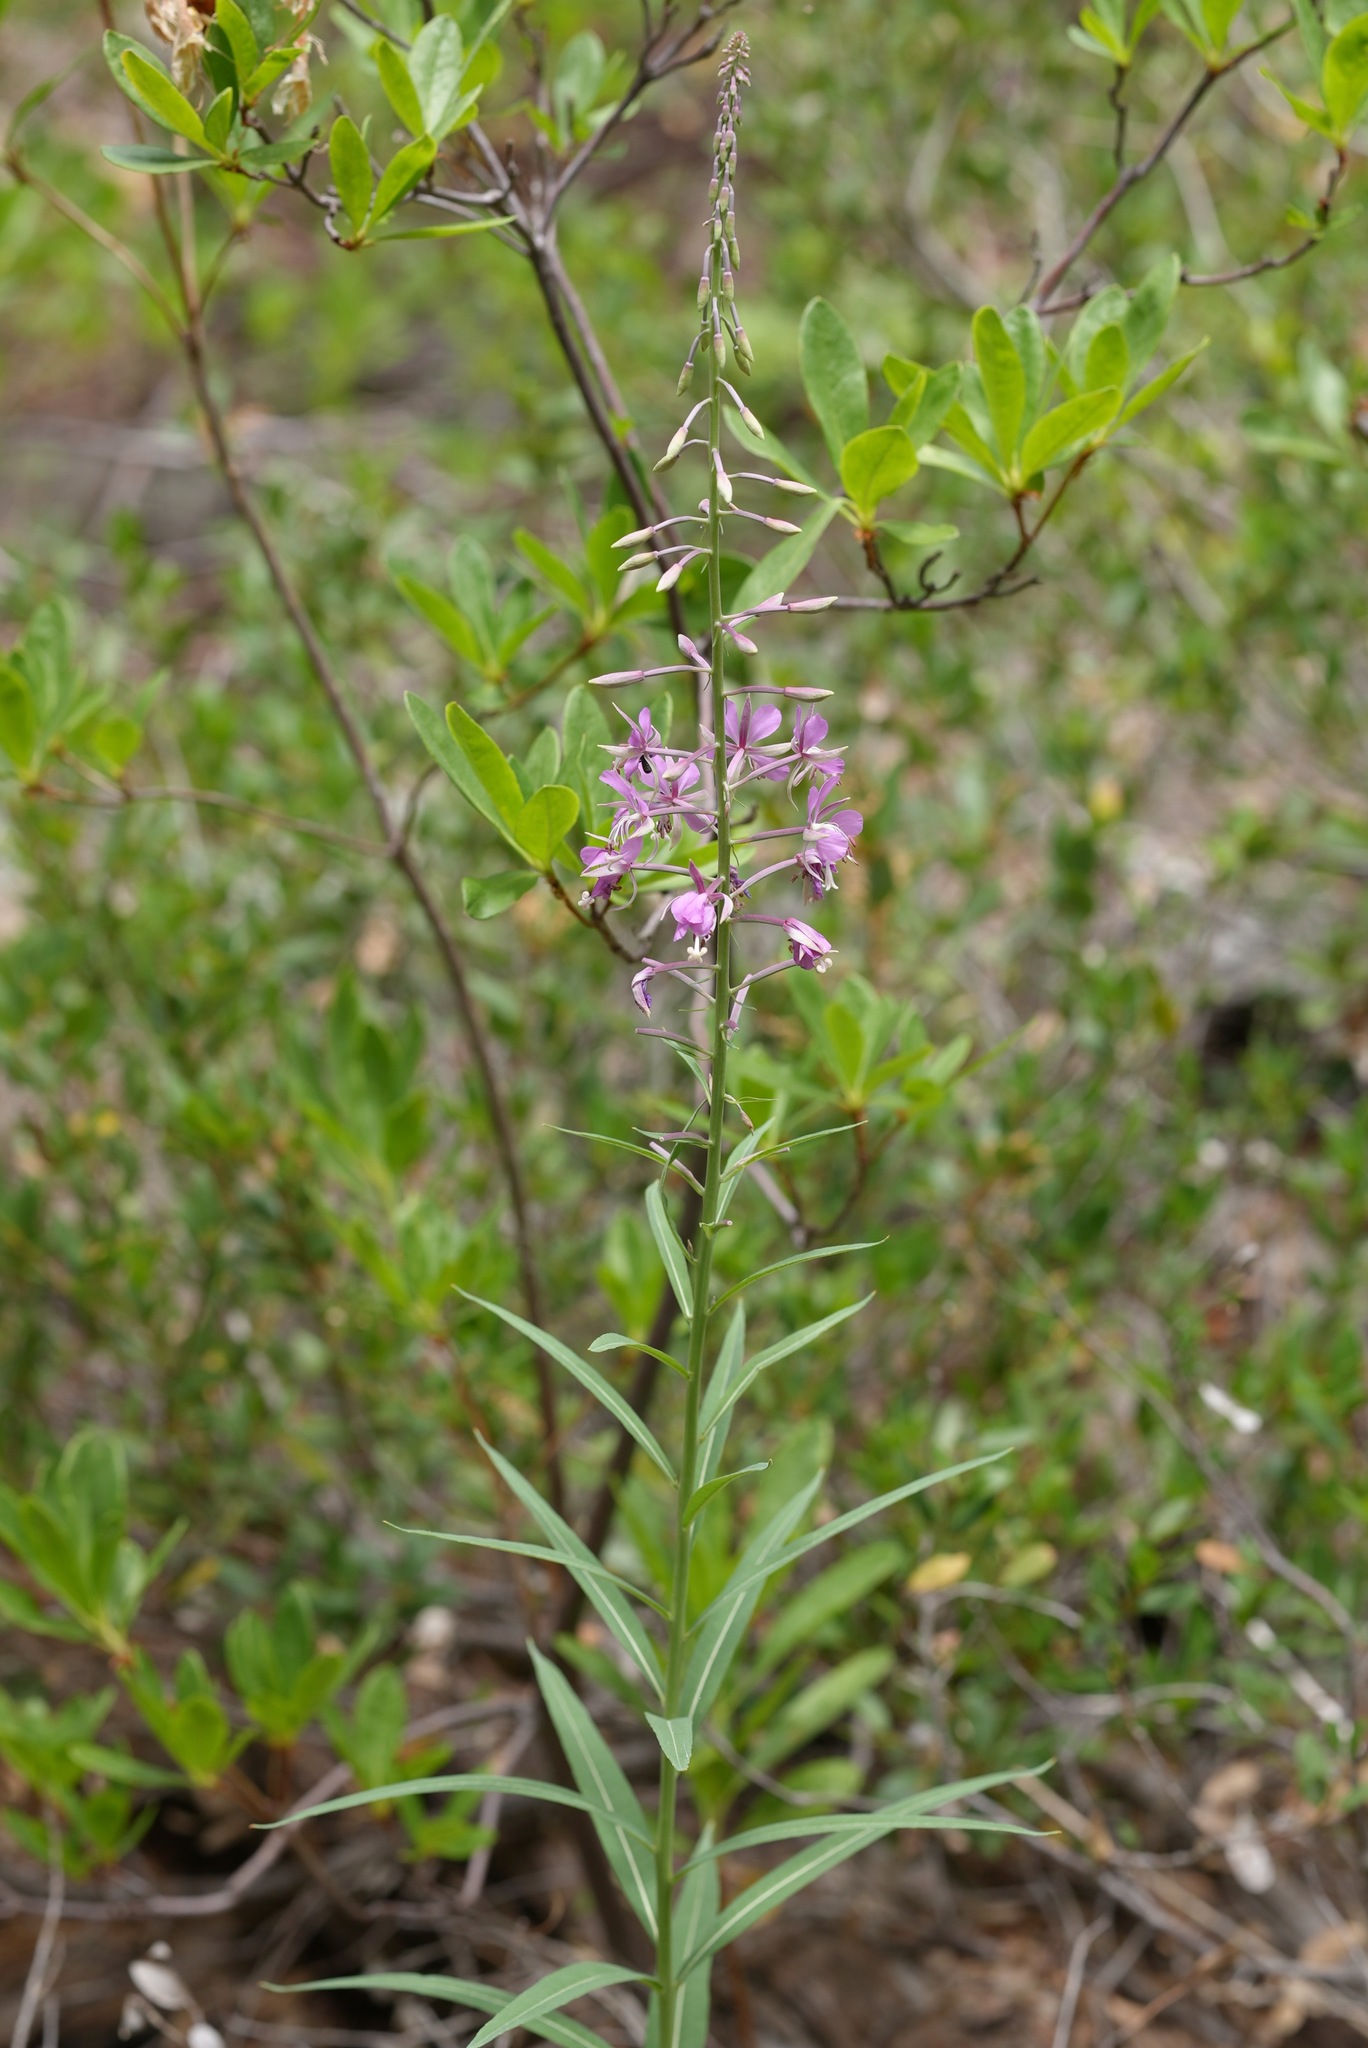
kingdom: Plantae
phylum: Tracheophyta
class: Magnoliopsida
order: Myrtales
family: Onagraceae
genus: Chamaenerion
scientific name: Chamaenerion angustifolium
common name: Fireweed
